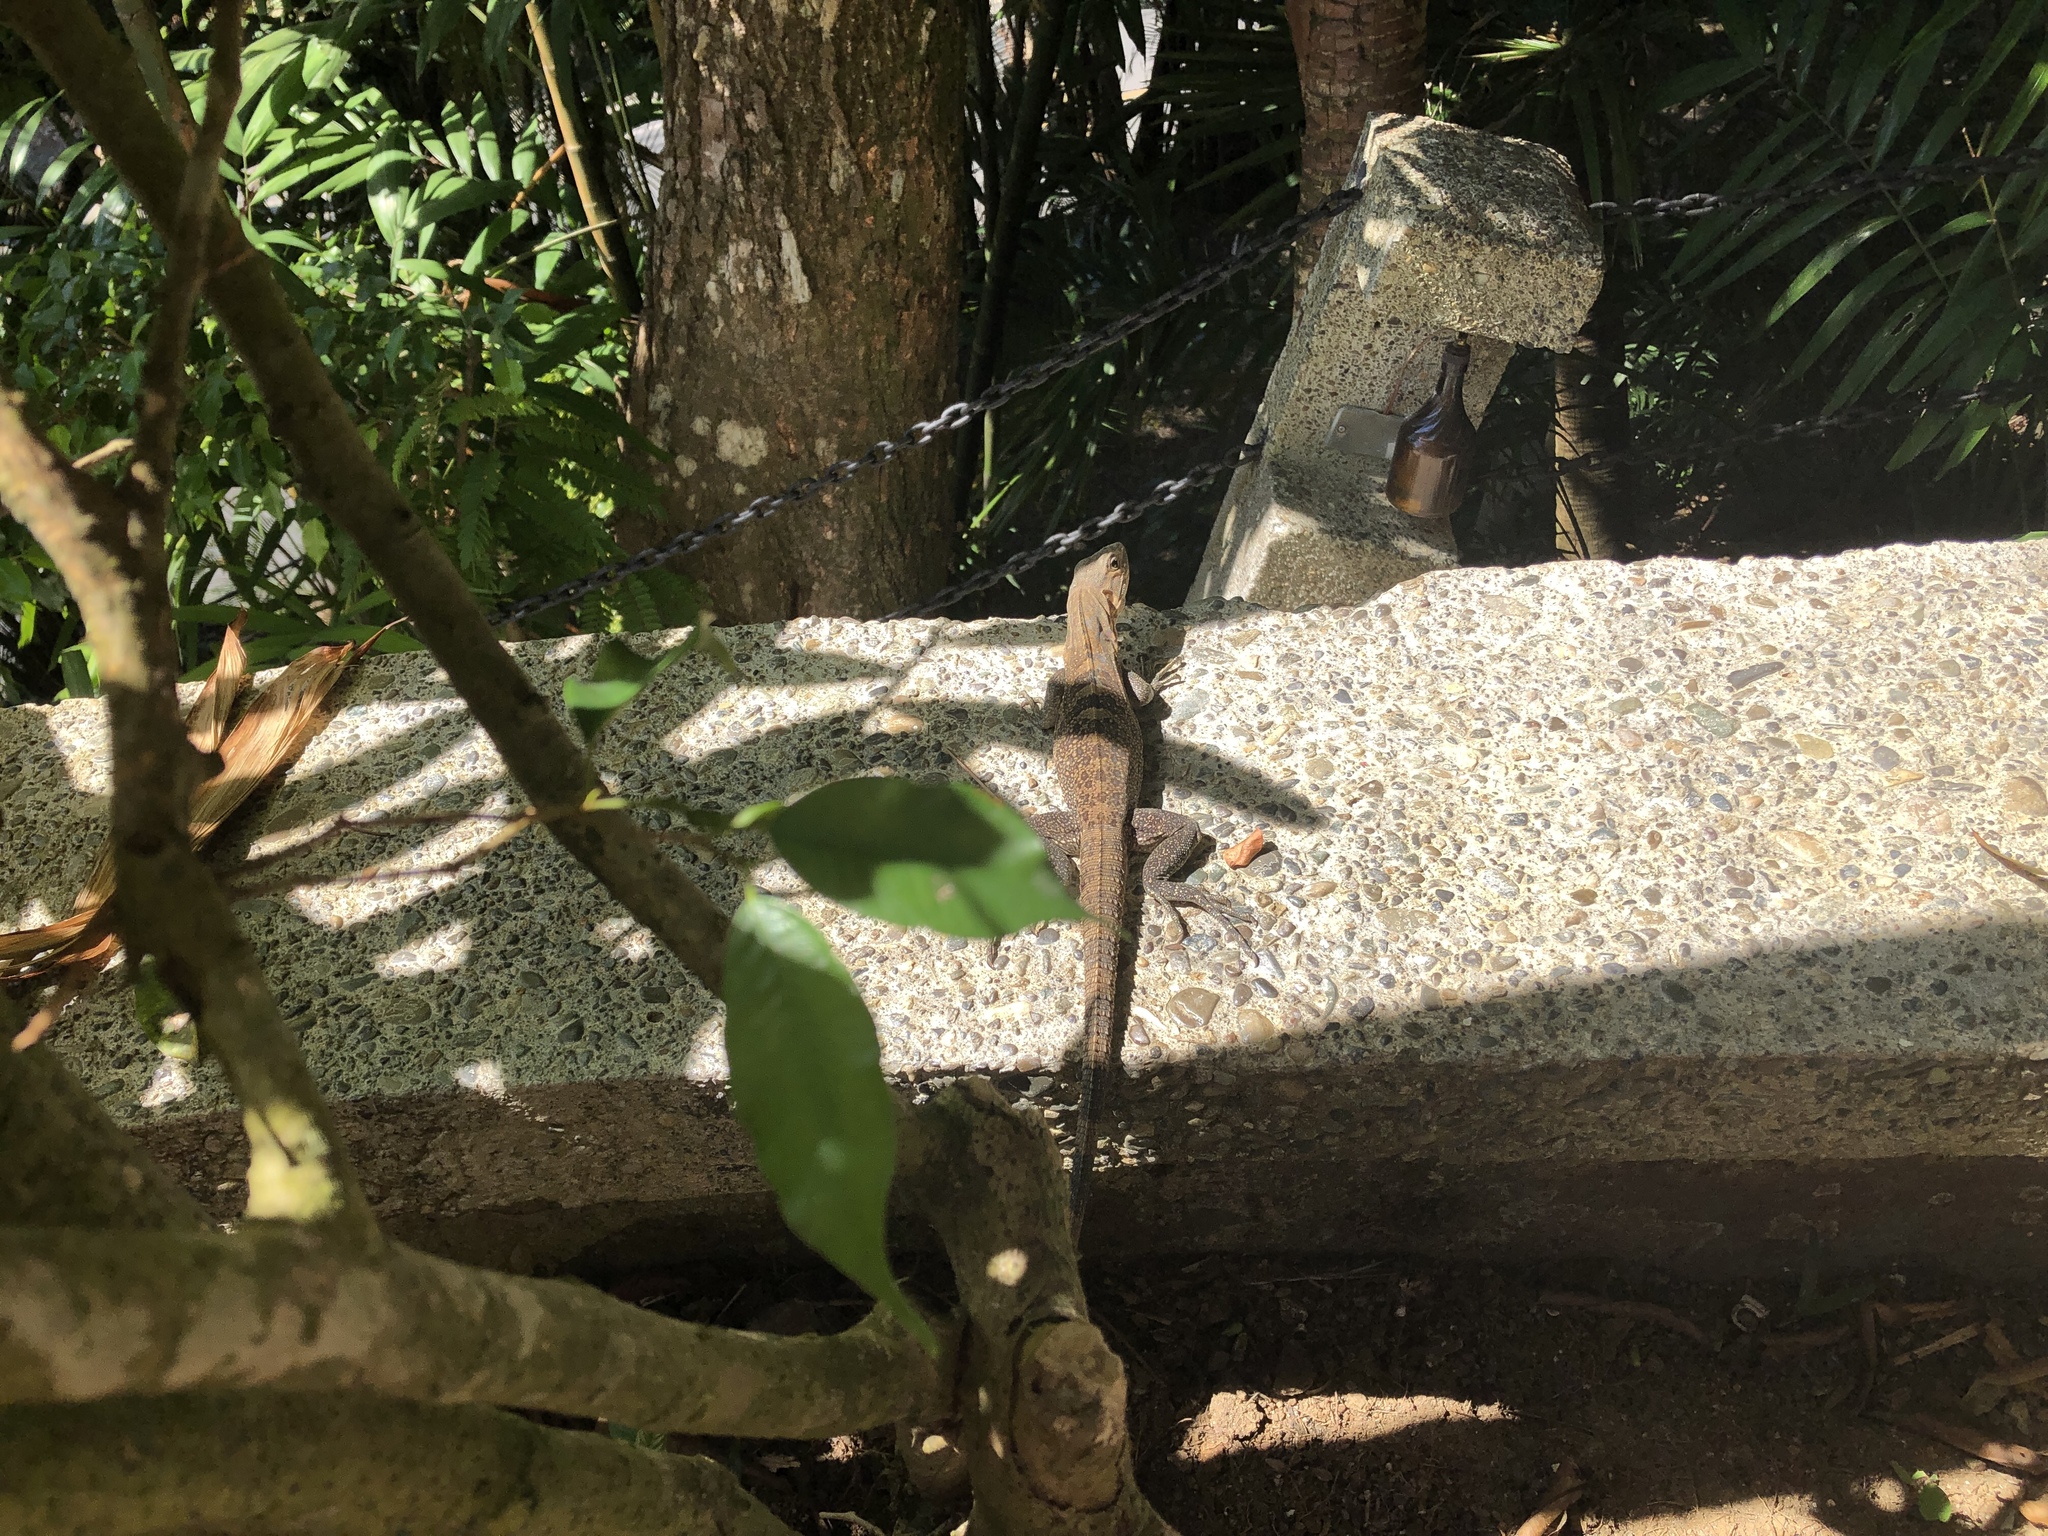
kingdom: Animalia
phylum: Chordata
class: Squamata
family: Iguanidae
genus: Ctenosaura
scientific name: Ctenosaura similis
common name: Black spiny-tailed iguana
